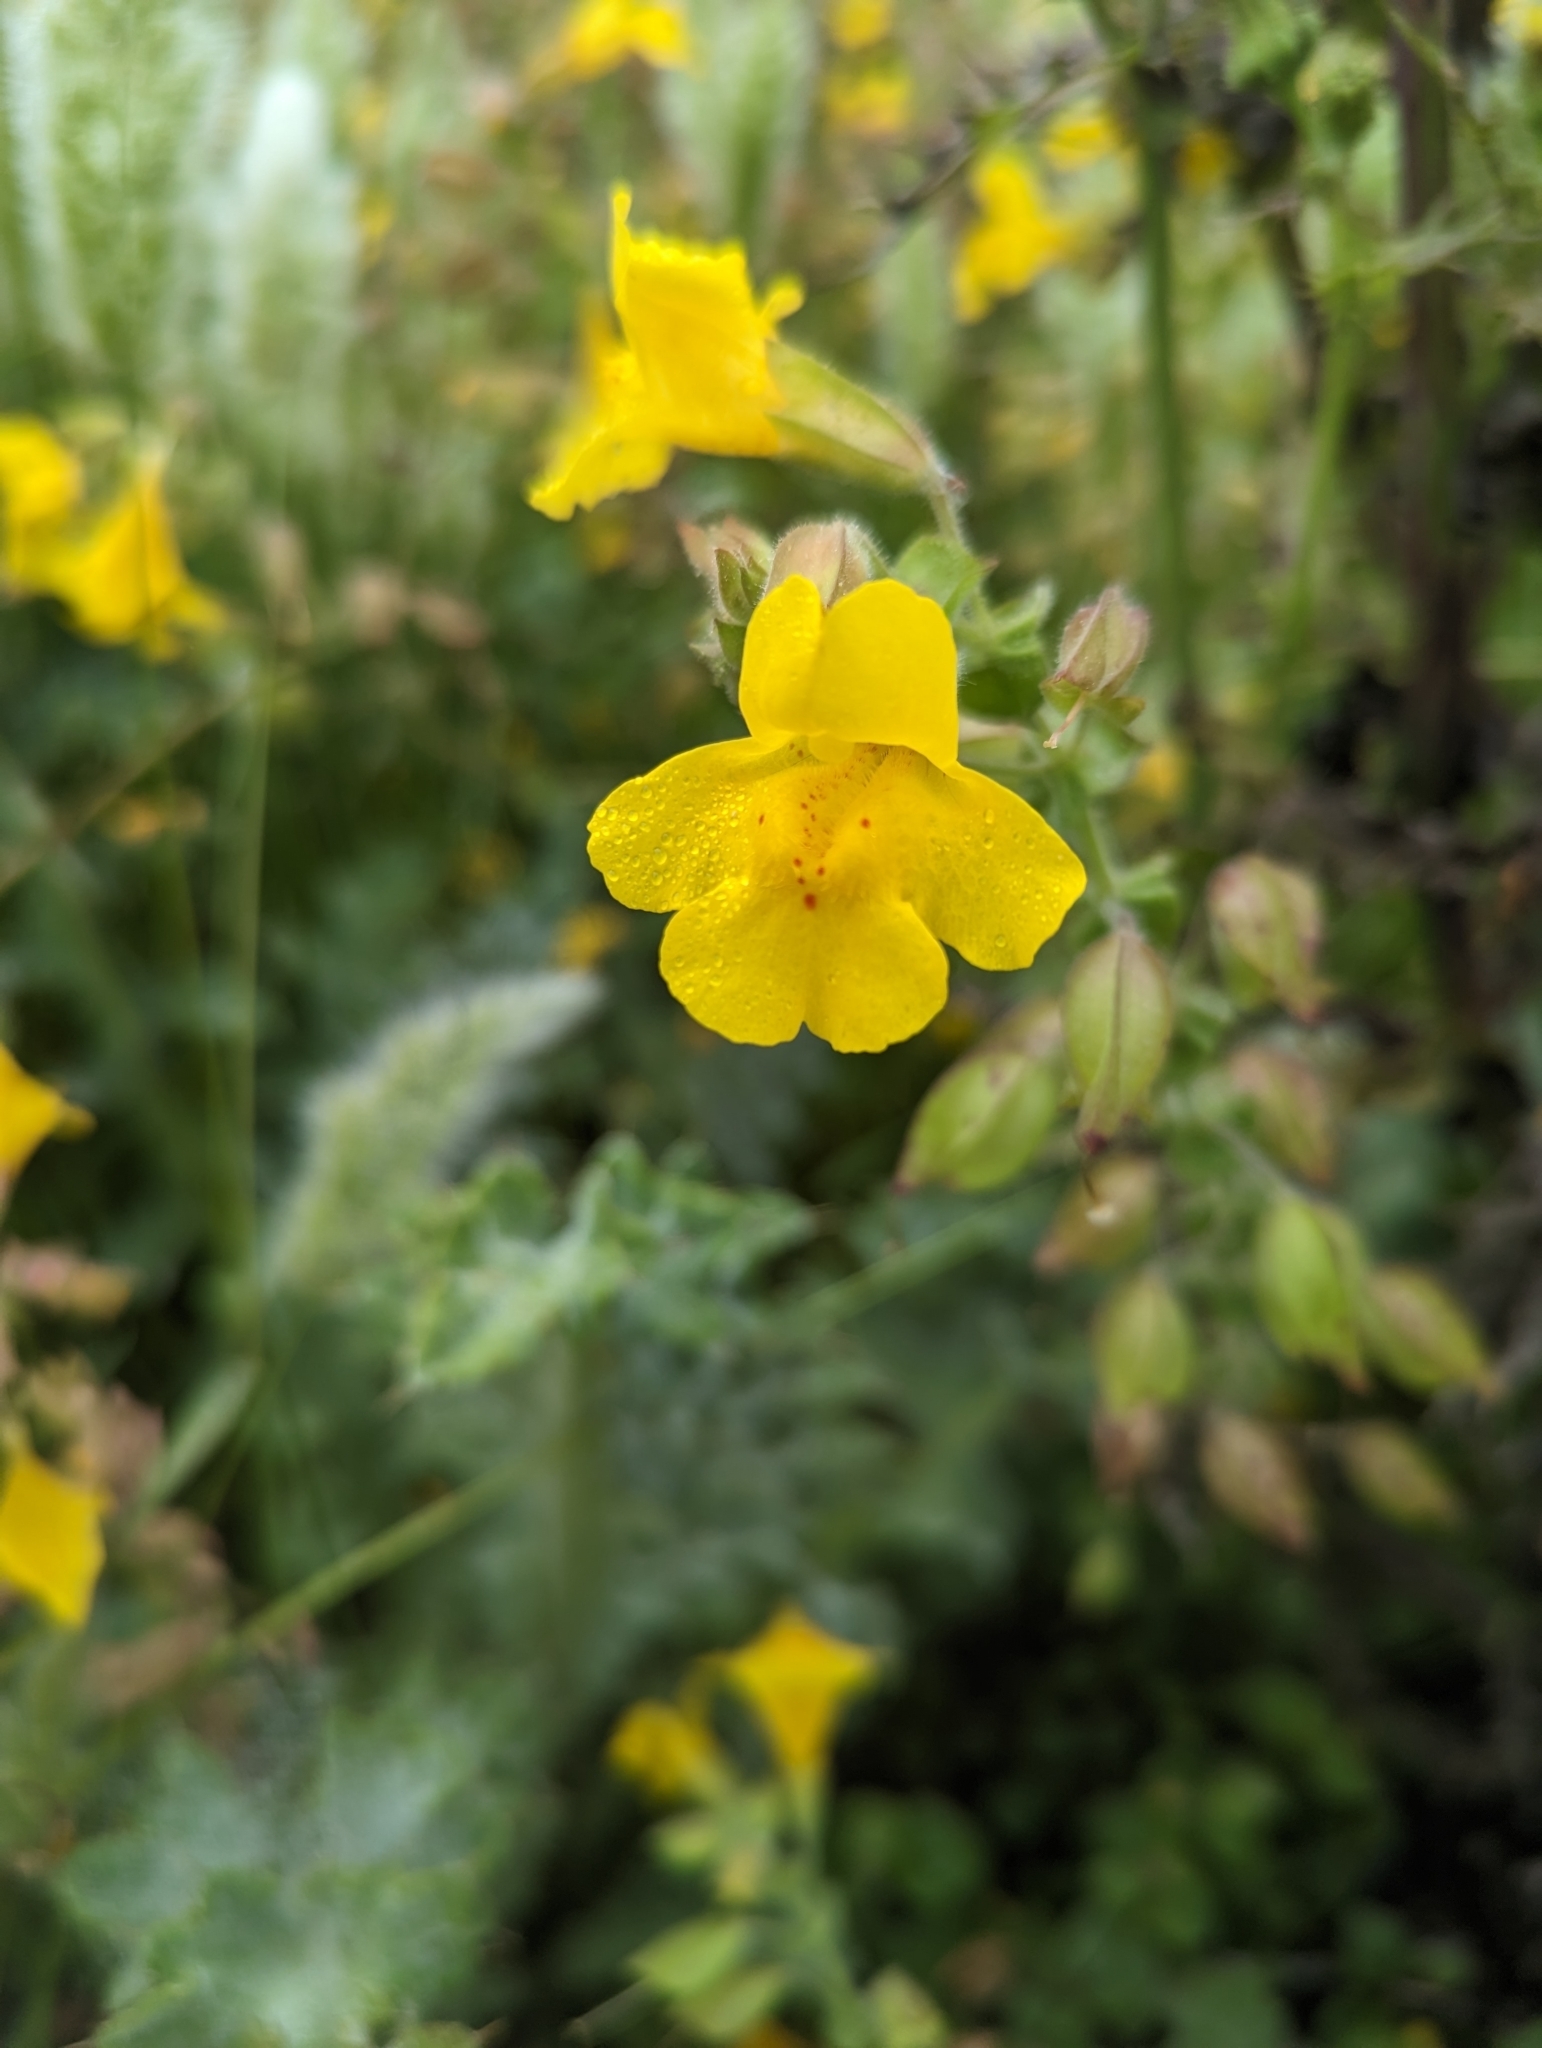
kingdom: Plantae
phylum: Tracheophyta
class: Magnoliopsida
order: Lamiales
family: Phrymaceae
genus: Erythranthe
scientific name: Erythranthe guttata
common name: Monkeyflower
